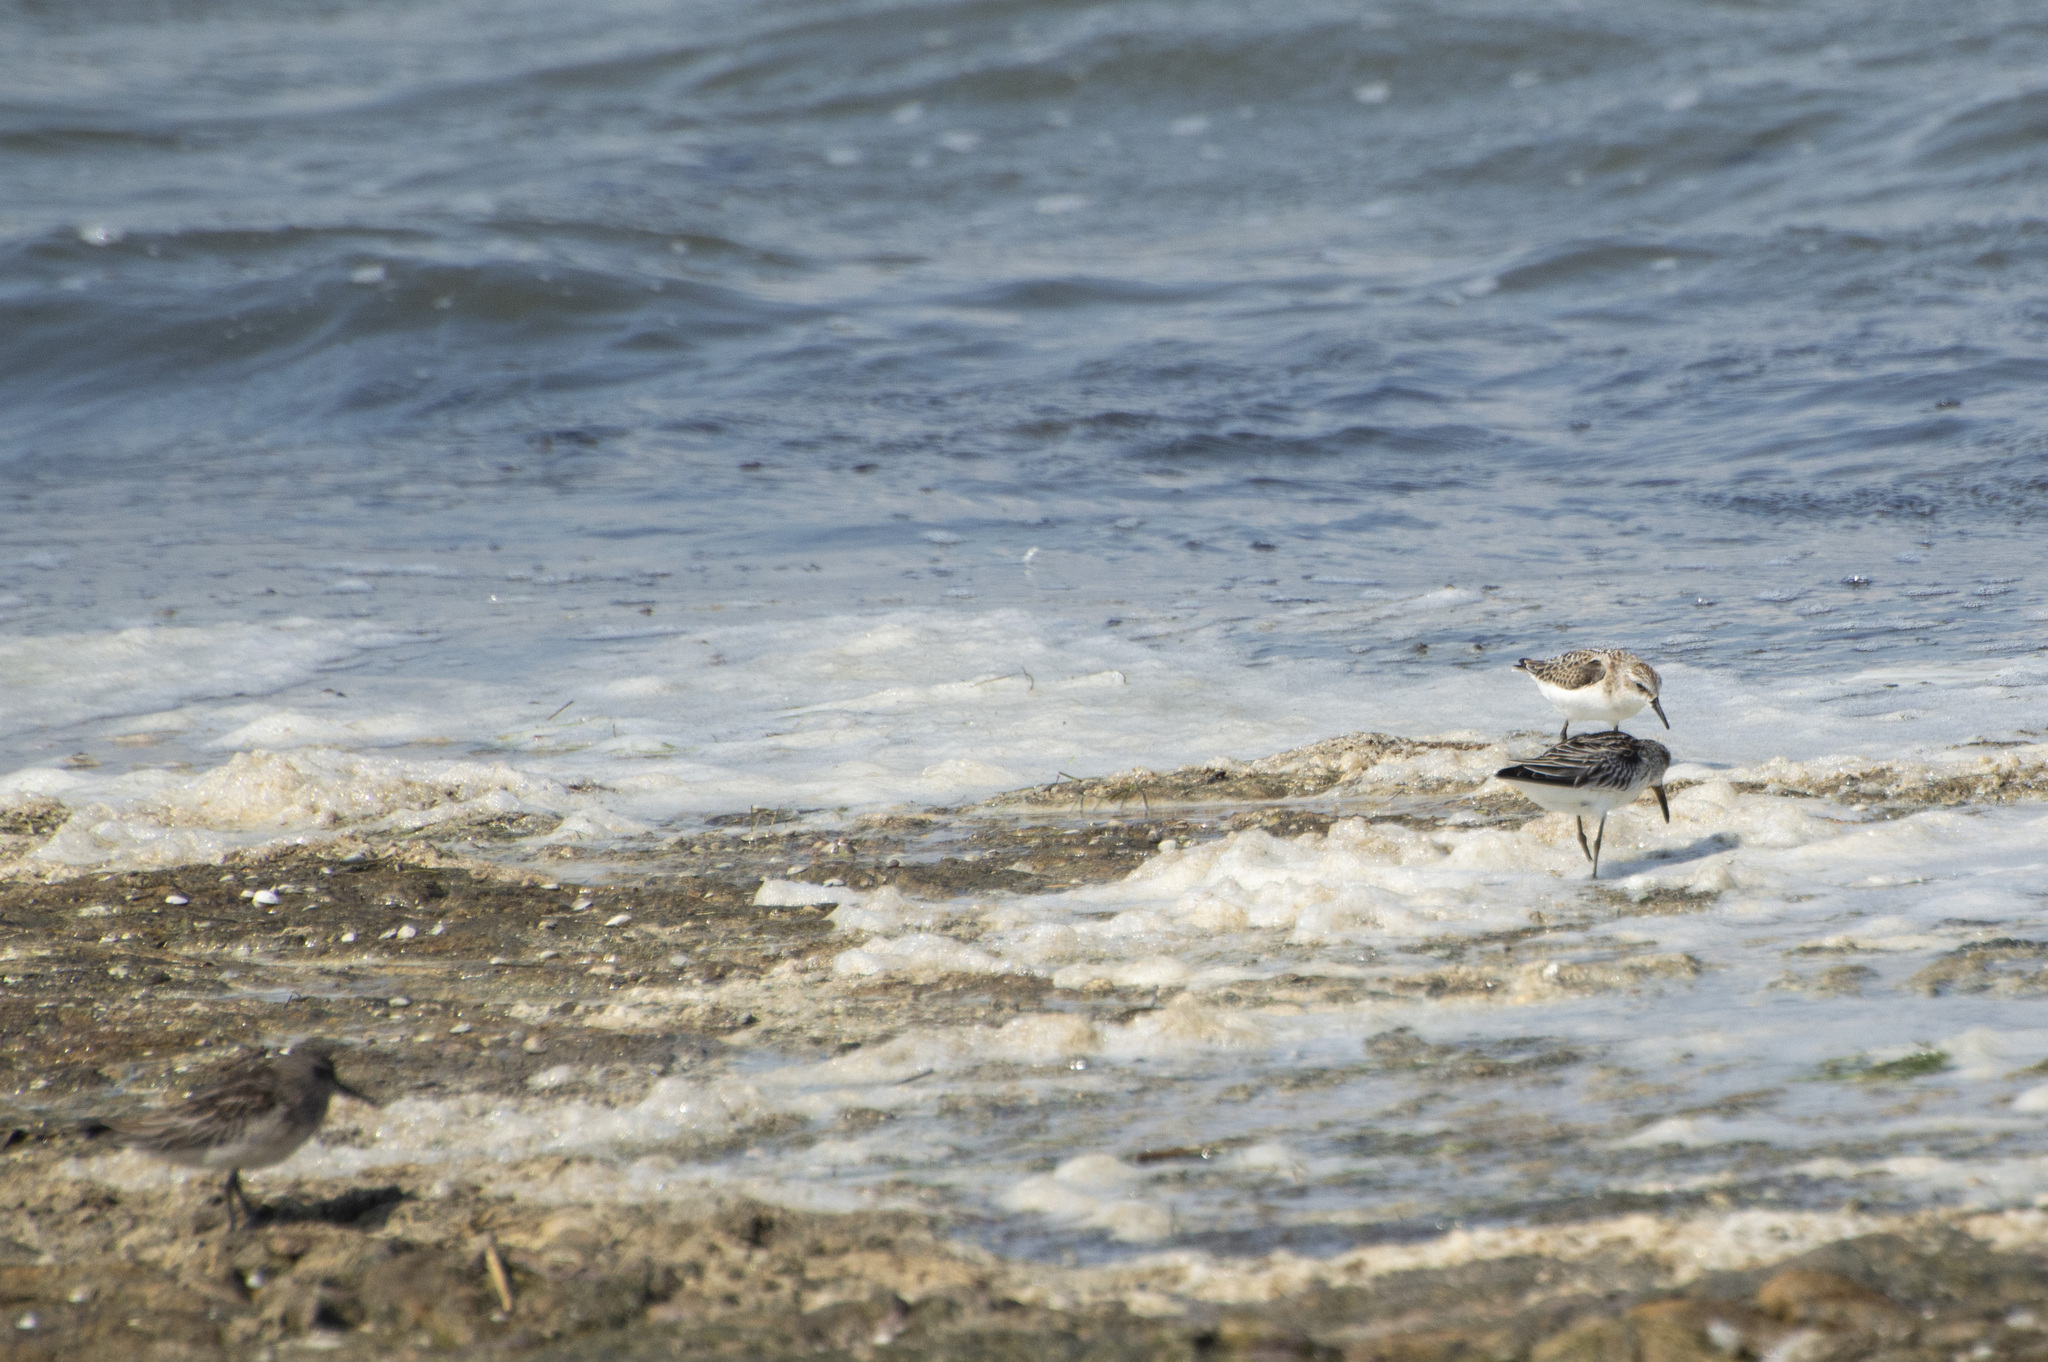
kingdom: Animalia
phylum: Chordata
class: Aves
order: Charadriiformes
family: Scolopacidae
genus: Calidris
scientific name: Calidris minuta
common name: Little stint
